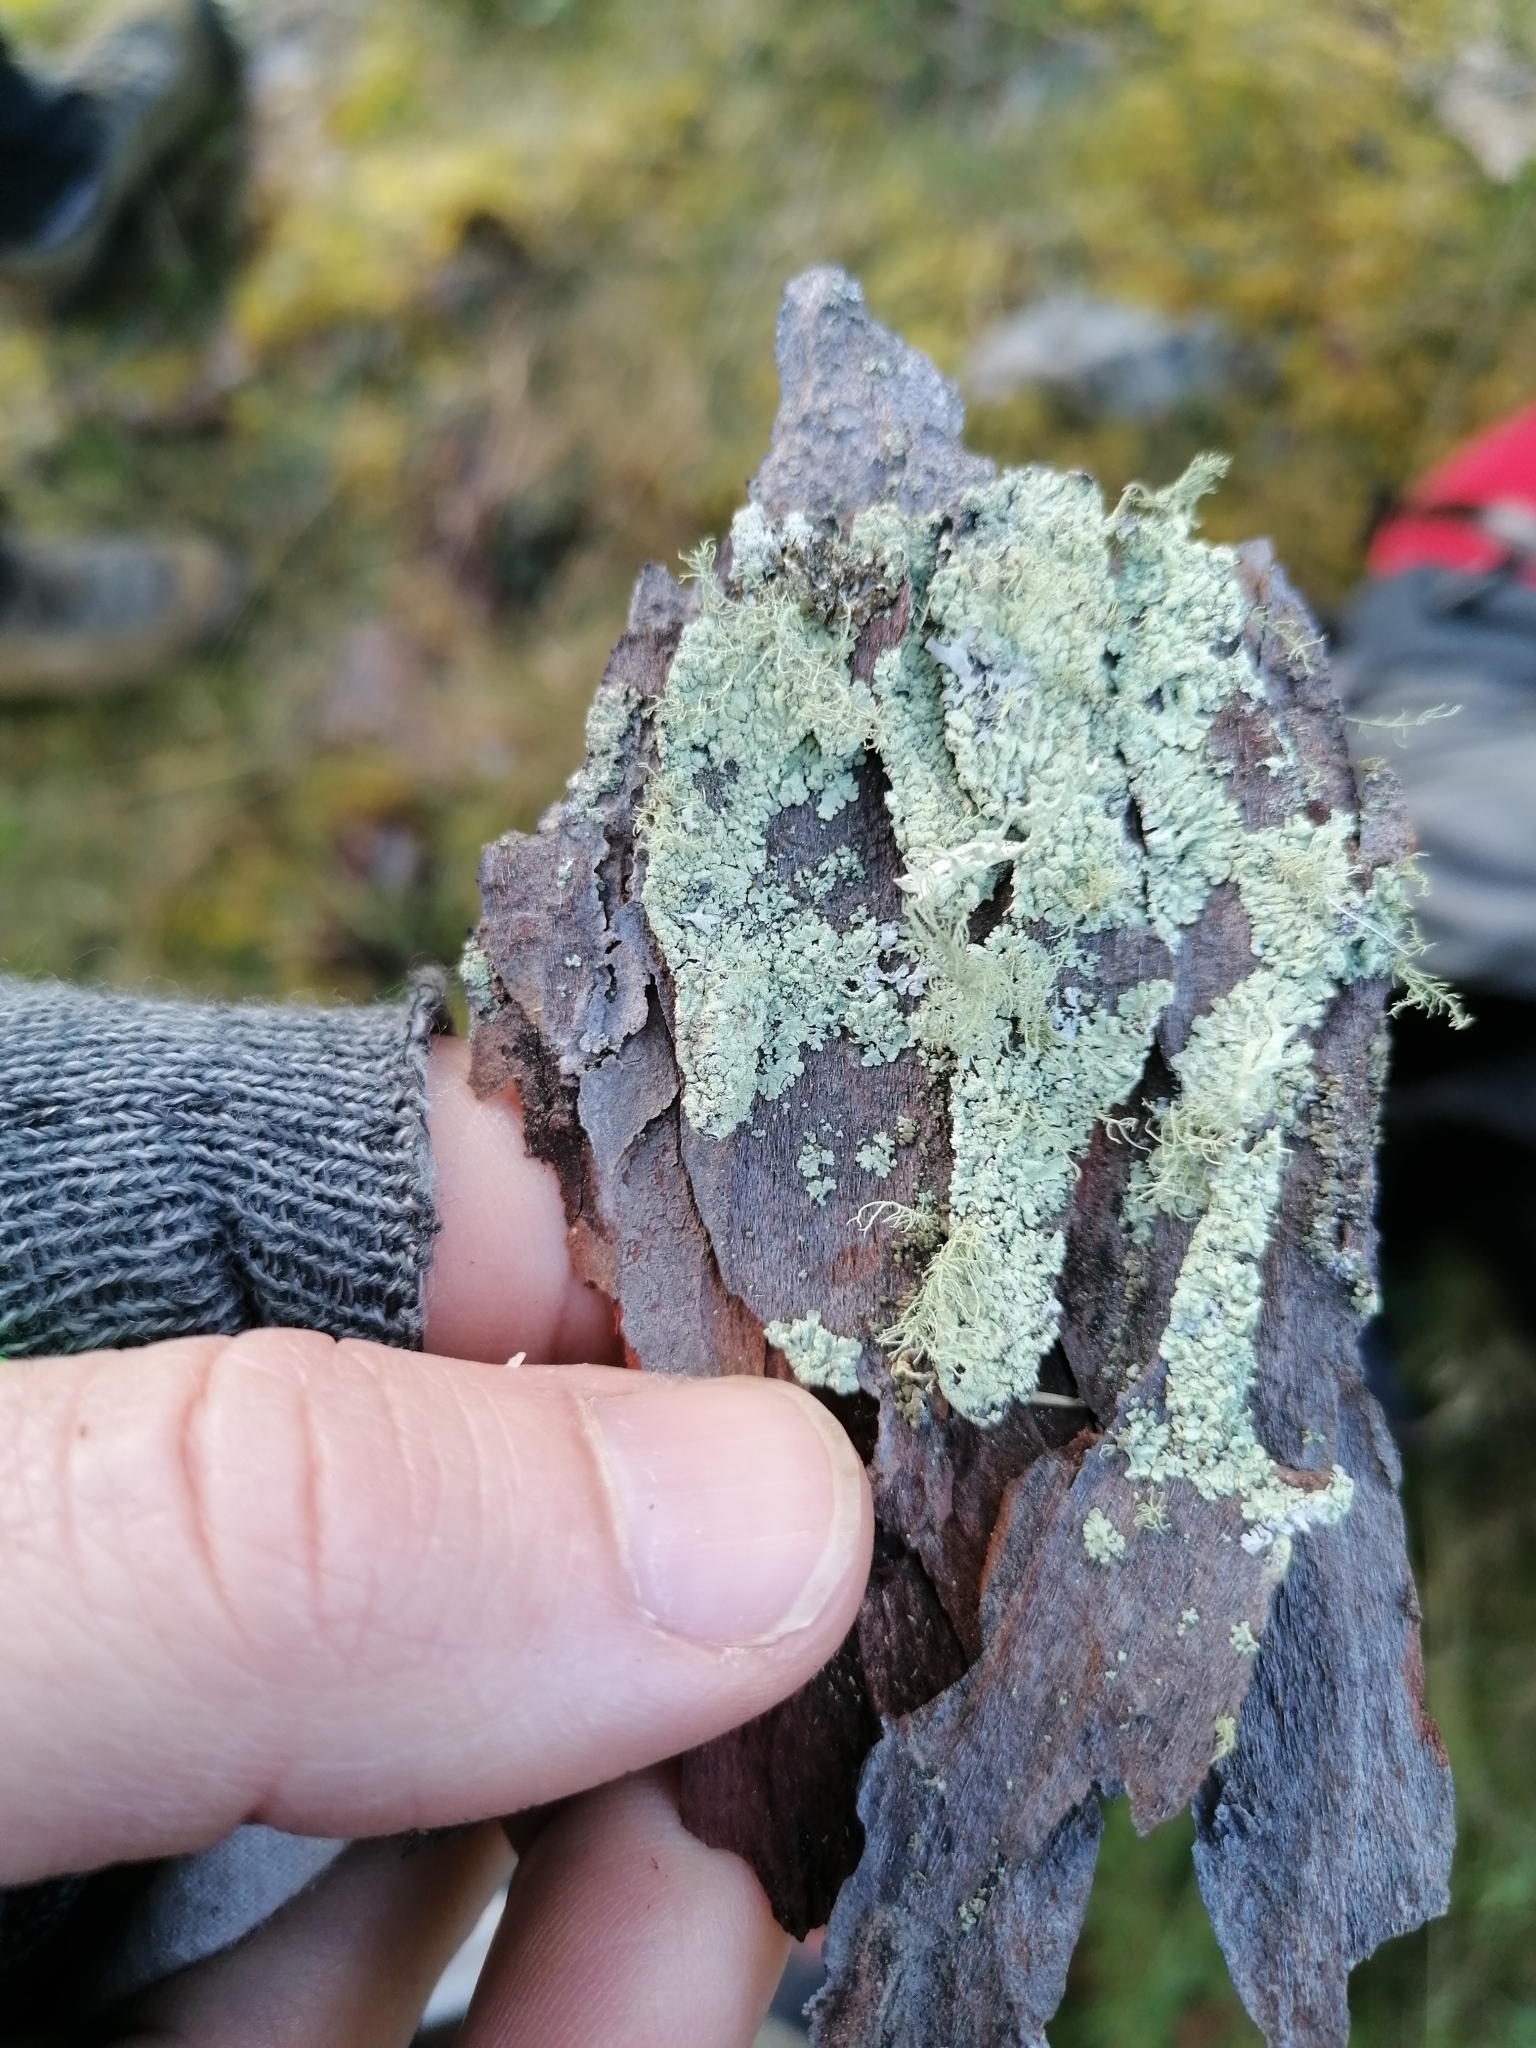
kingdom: Fungi
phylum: Ascomycota
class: Lecanoromycetes
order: Lecanorales
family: Parmeliaceae
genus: Parmeliopsis
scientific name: Parmeliopsis ambigua
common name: Green starburst lichen
